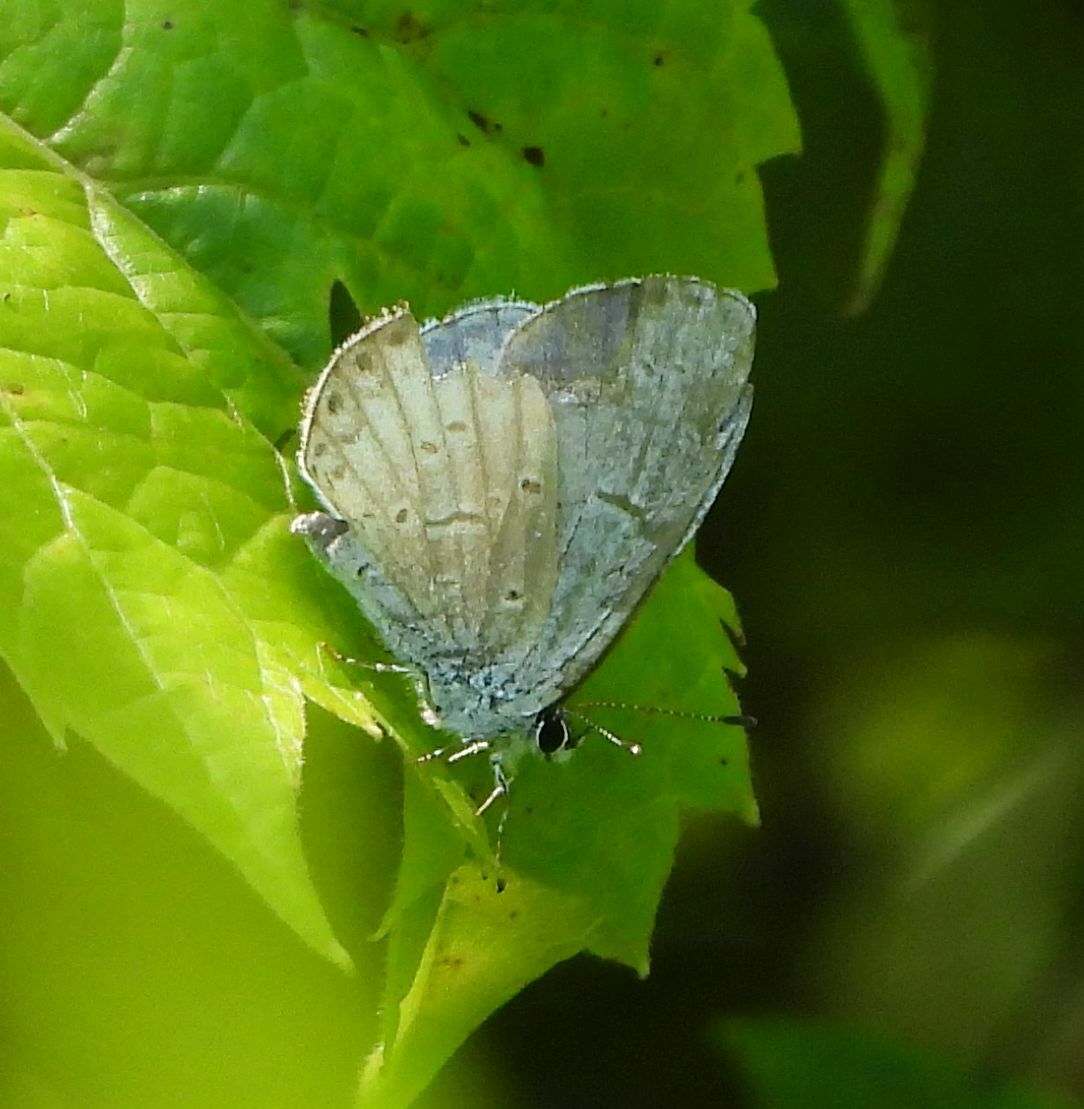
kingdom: Animalia
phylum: Arthropoda
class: Insecta
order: Lepidoptera
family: Lycaenidae
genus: Celastrina
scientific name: Celastrina lucia
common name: Lucia azure
